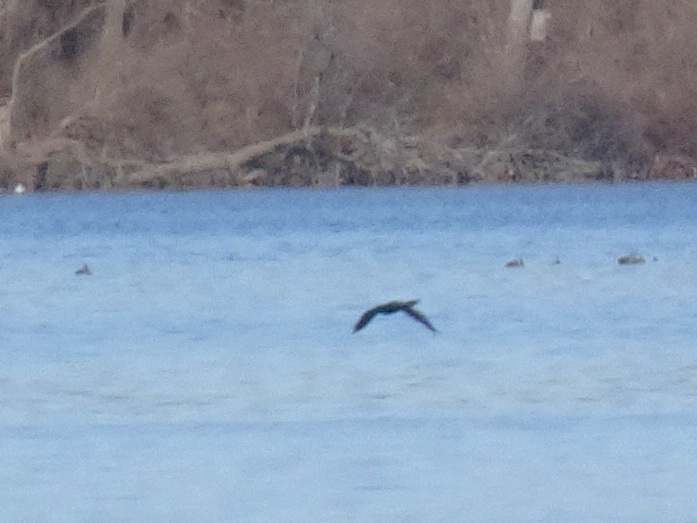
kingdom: Animalia
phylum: Chordata
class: Aves
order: Suliformes
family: Phalacrocoracidae
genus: Phalacrocorax
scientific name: Phalacrocorax auritus
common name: Double-crested cormorant
